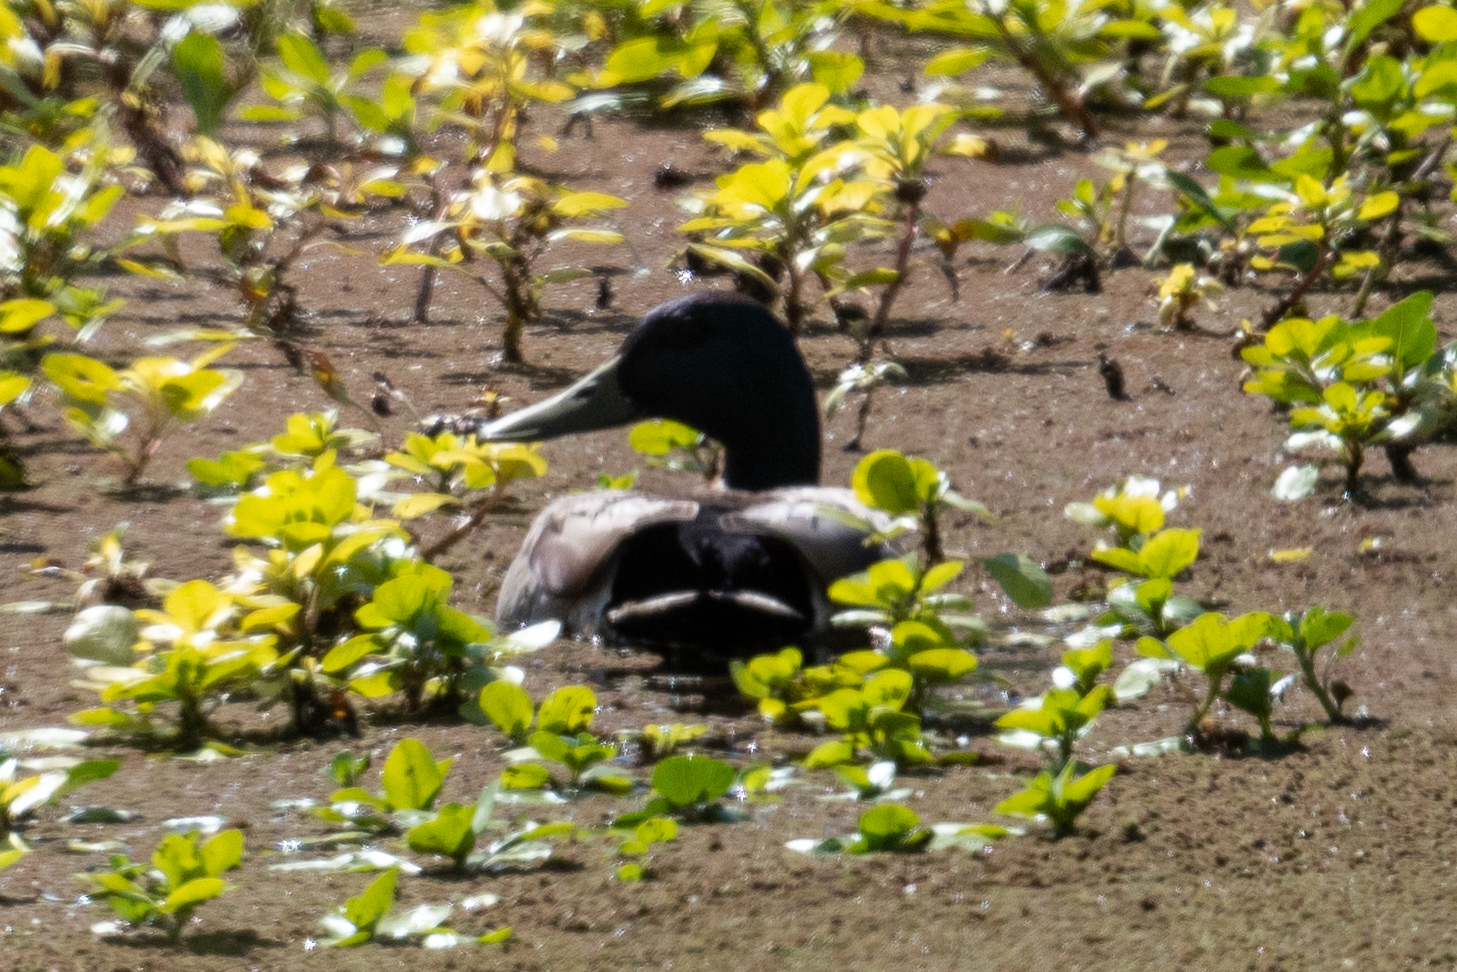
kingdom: Animalia
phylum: Chordata
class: Aves
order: Anseriformes
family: Anatidae
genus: Anas
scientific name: Anas platyrhynchos
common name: Mallard
